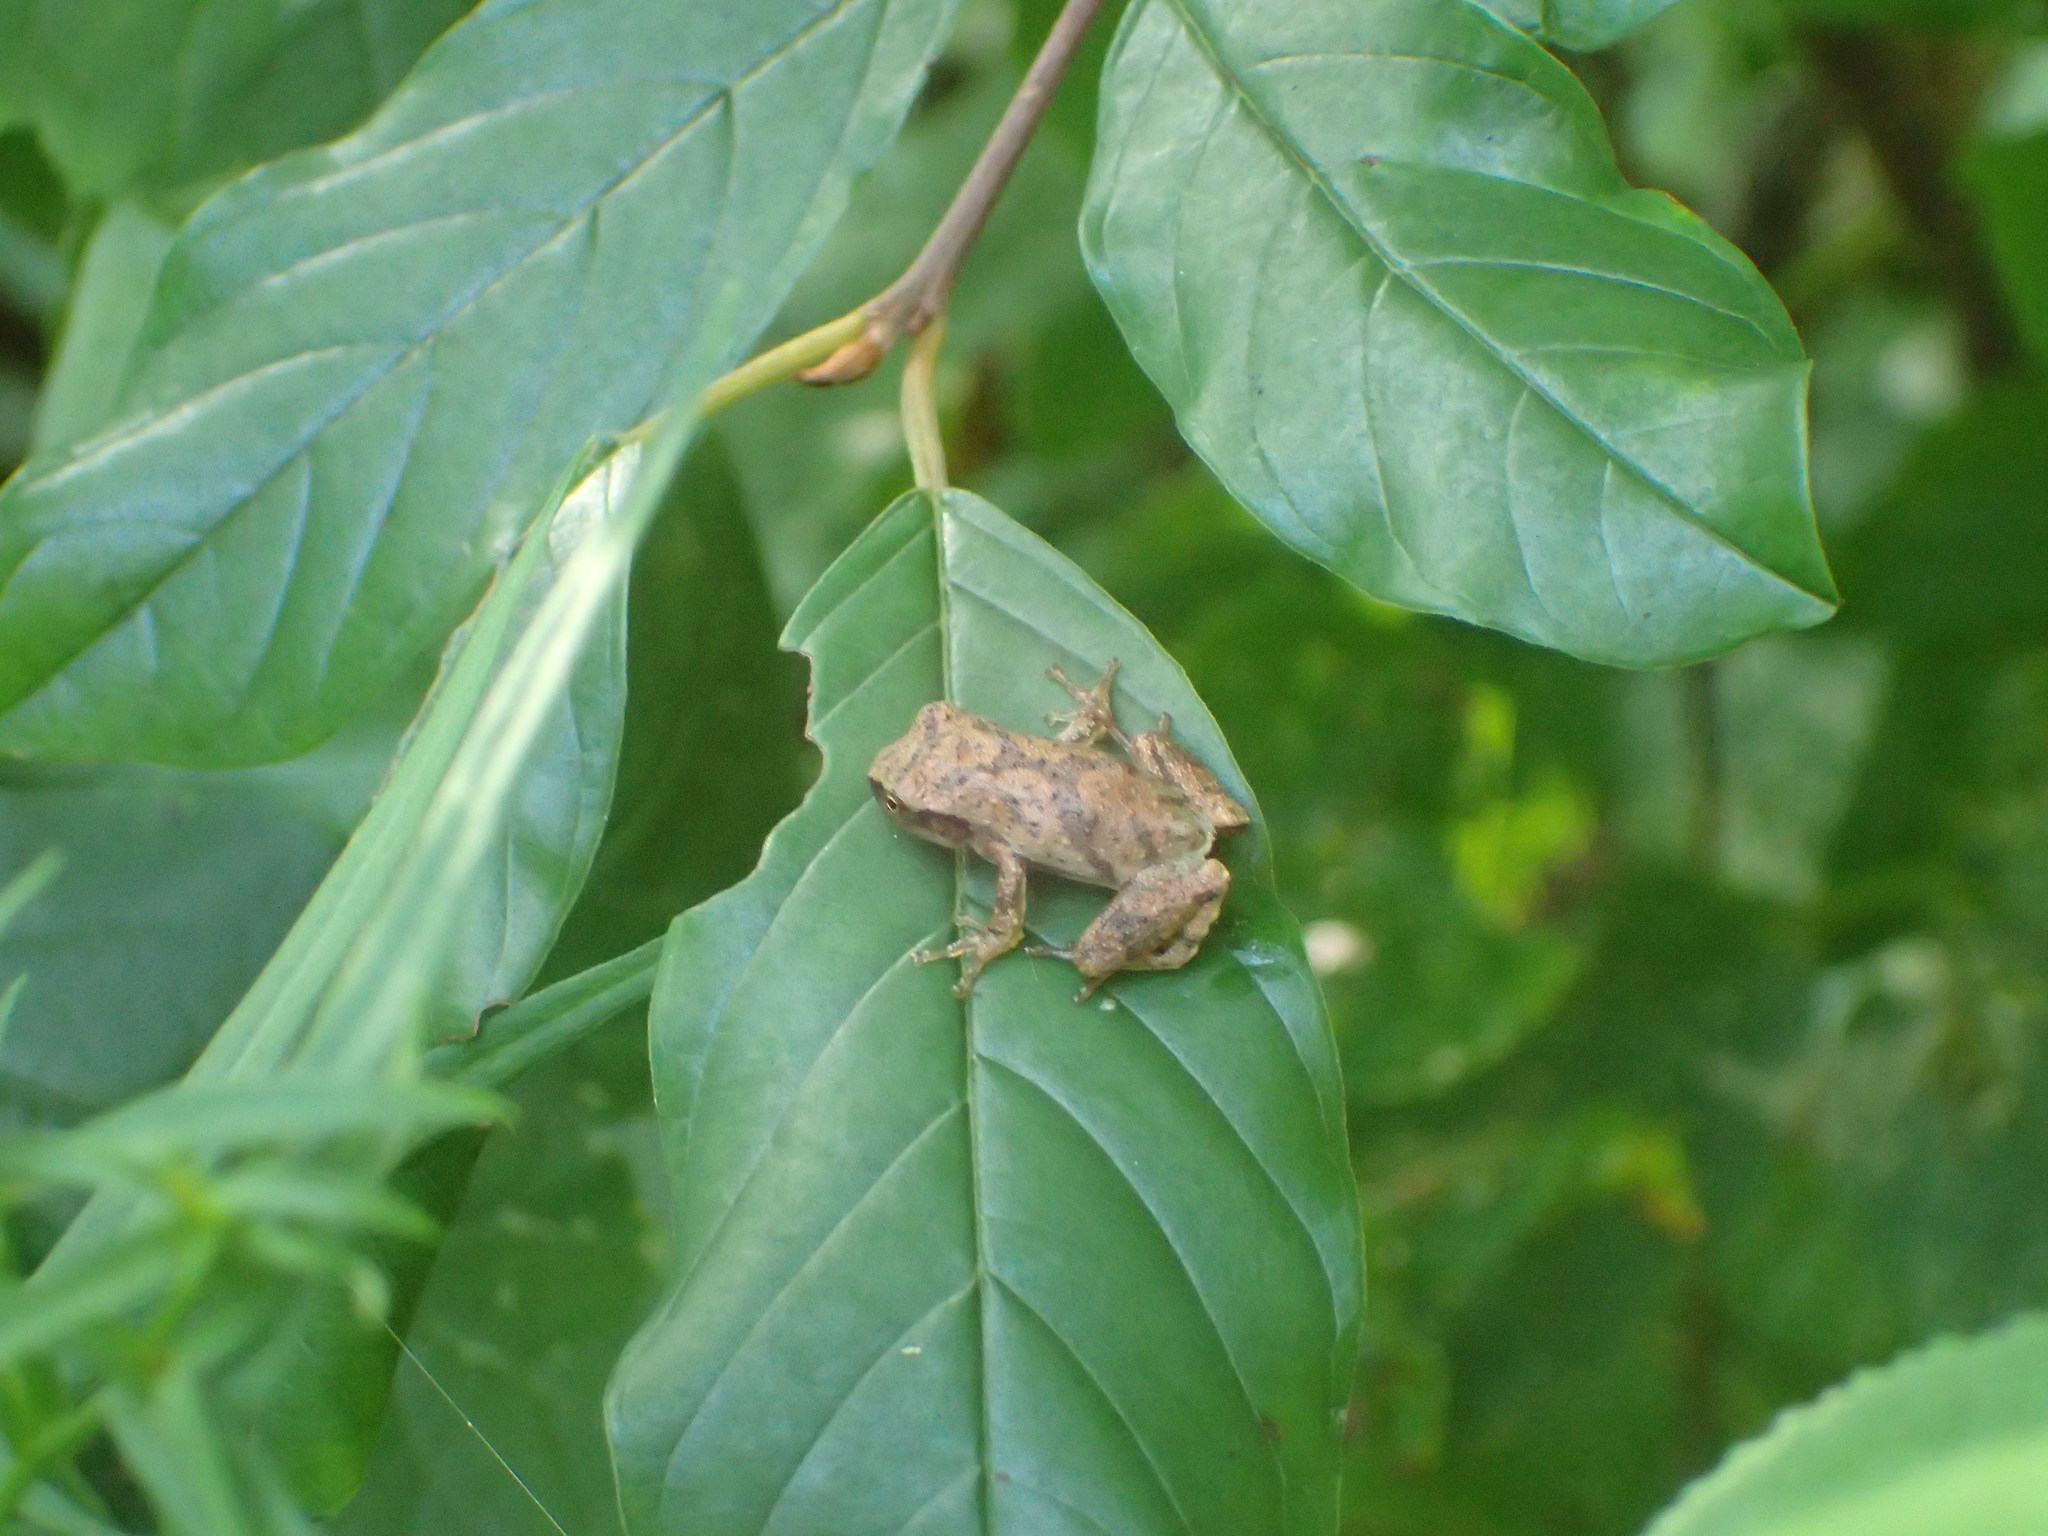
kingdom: Animalia
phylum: Chordata
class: Amphibia
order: Anura
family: Hylidae
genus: Pseudacris
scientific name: Pseudacris crucifer
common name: Spring peeper
